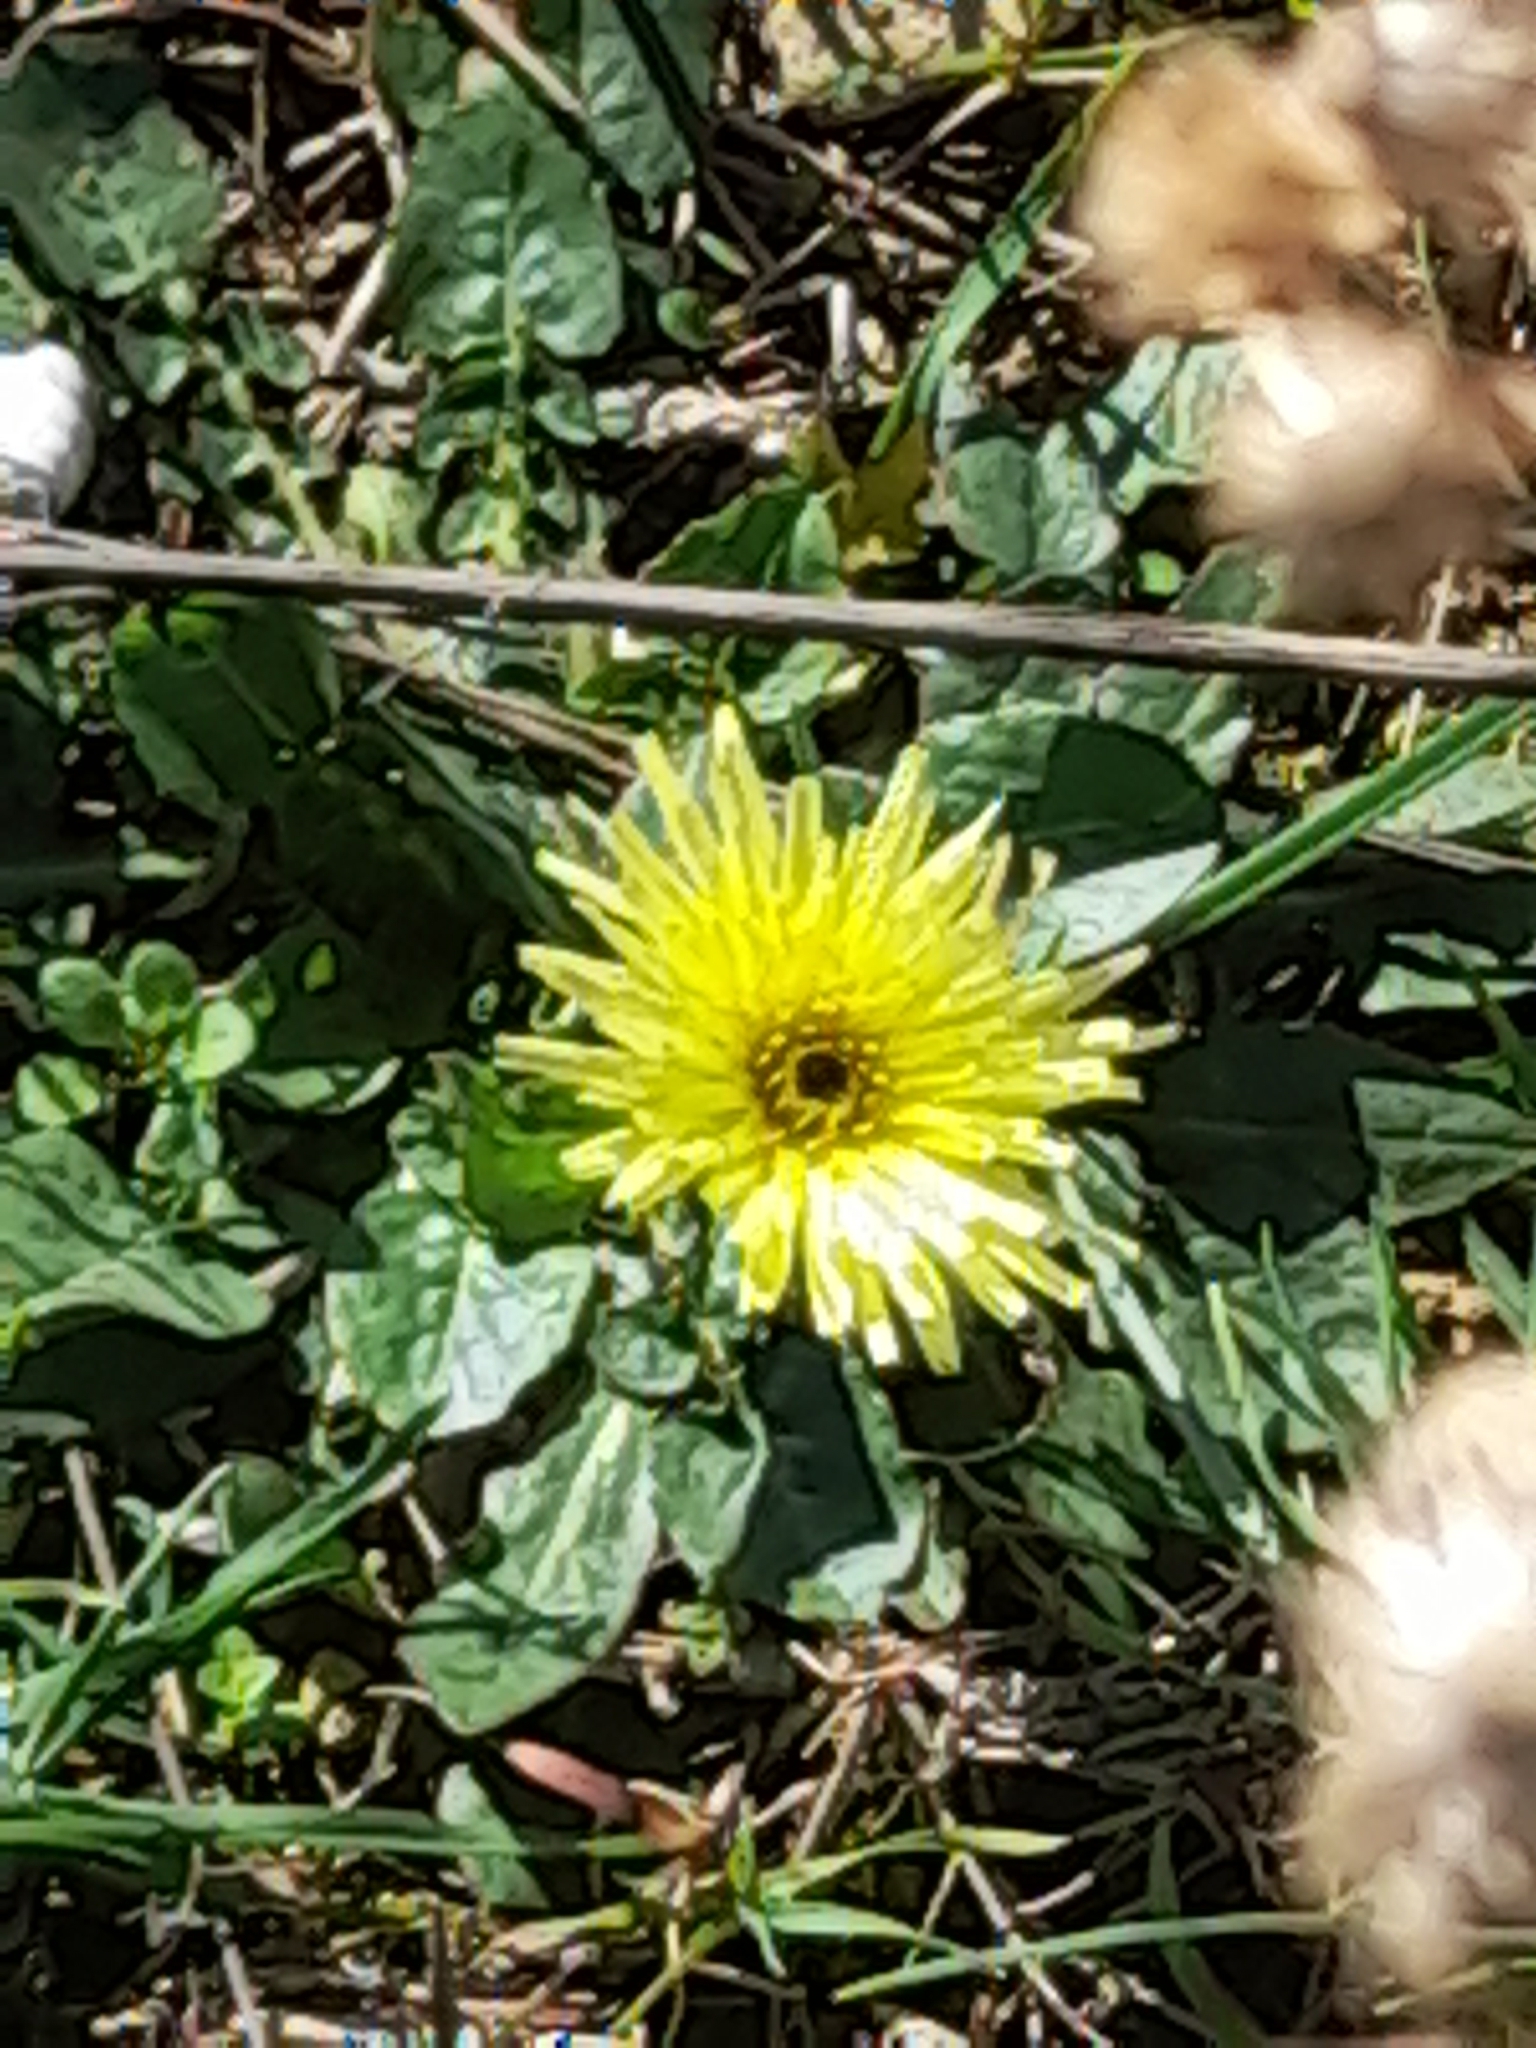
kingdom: Plantae
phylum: Tracheophyta
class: Magnoliopsida
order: Asterales
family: Asteraceae
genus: Urospermum
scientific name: Urospermum dalechampii
